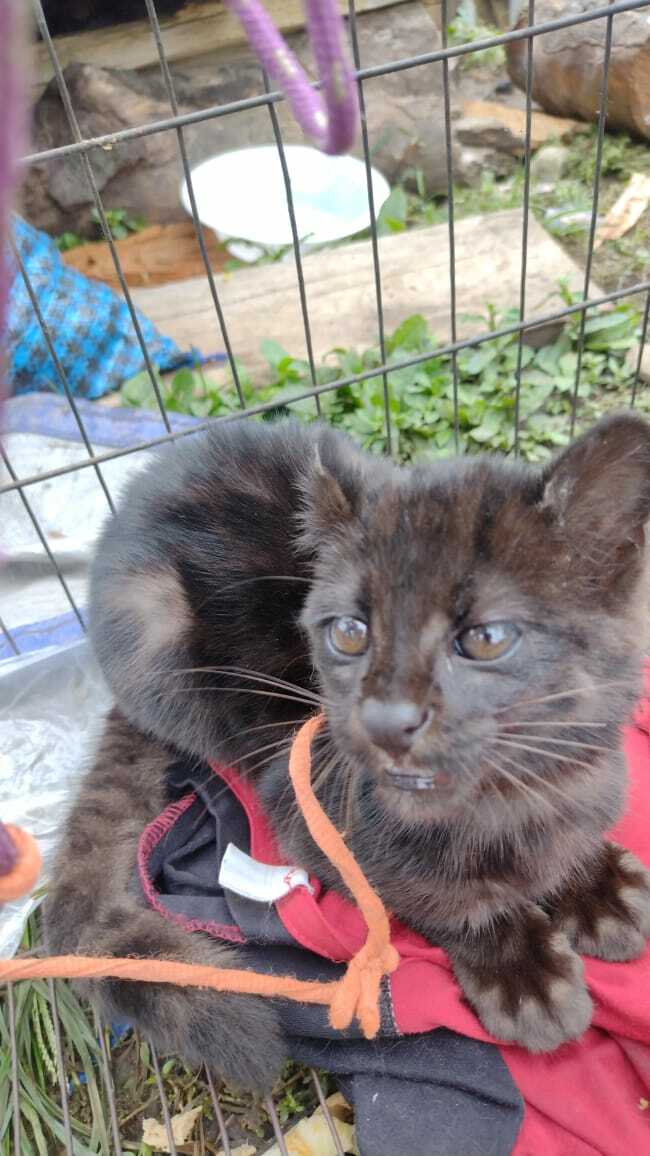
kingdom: Animalia
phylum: Chordata
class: Mammalia
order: Carnivora
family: Felidae
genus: Leopardus
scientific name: Leopardus tigrinus
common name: Oncilla
